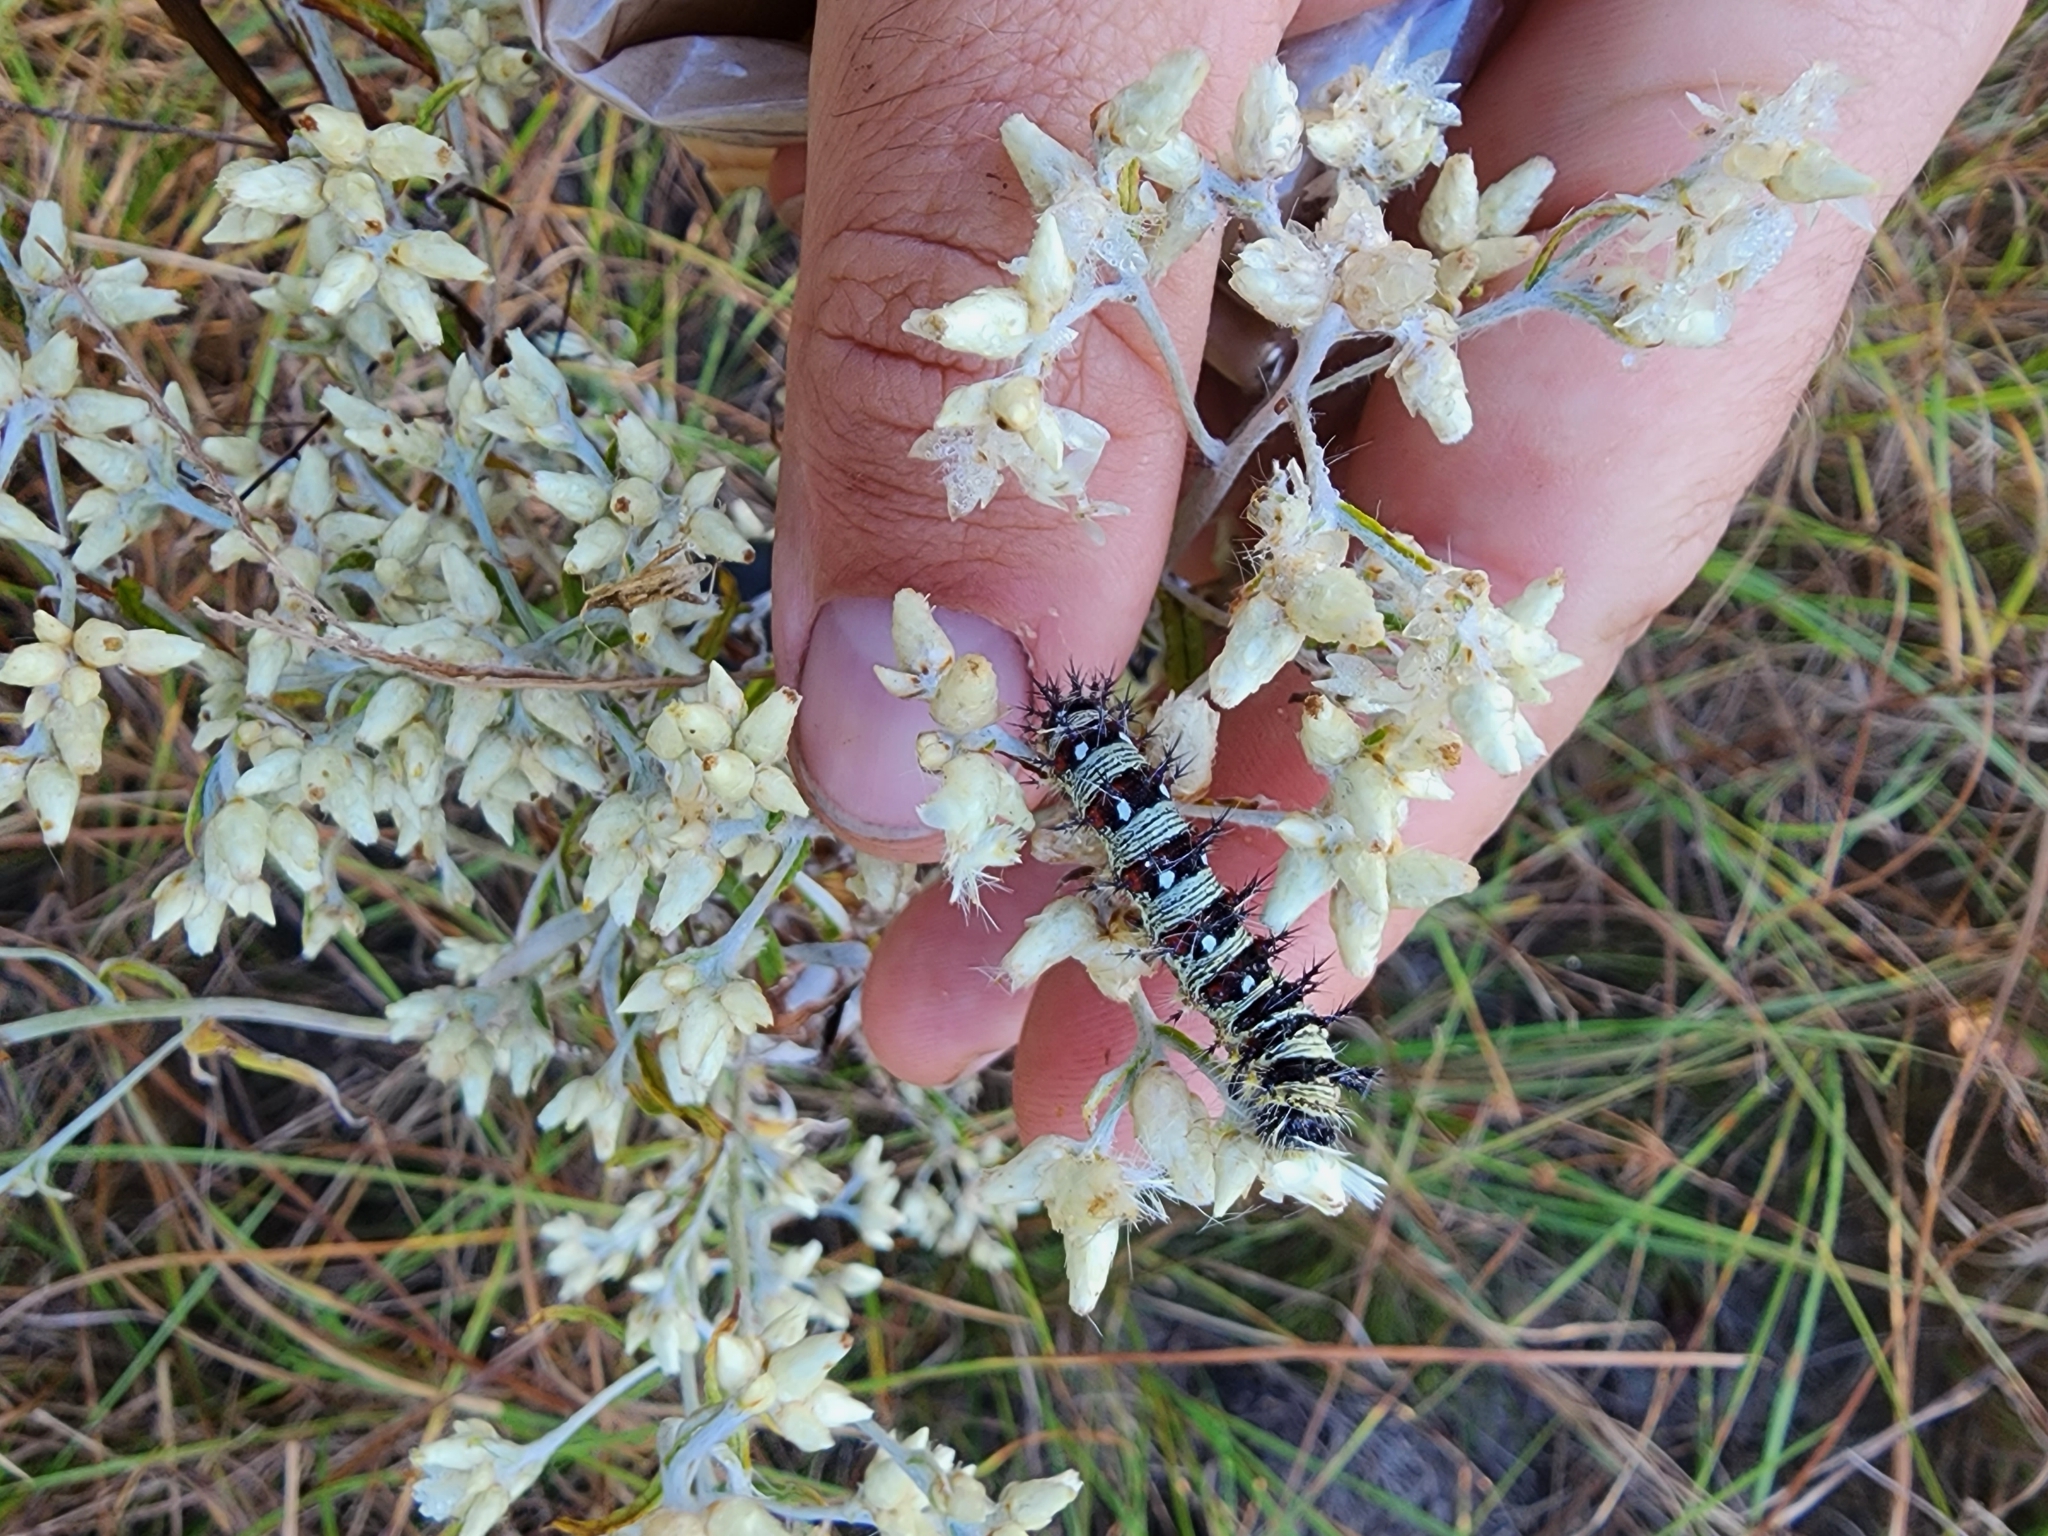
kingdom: Animalia
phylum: Arthropoda
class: Insecta
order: Lepidoptera
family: Nymphalidae
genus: Vanessa
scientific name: Vanessa virginiensis
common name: American lady
